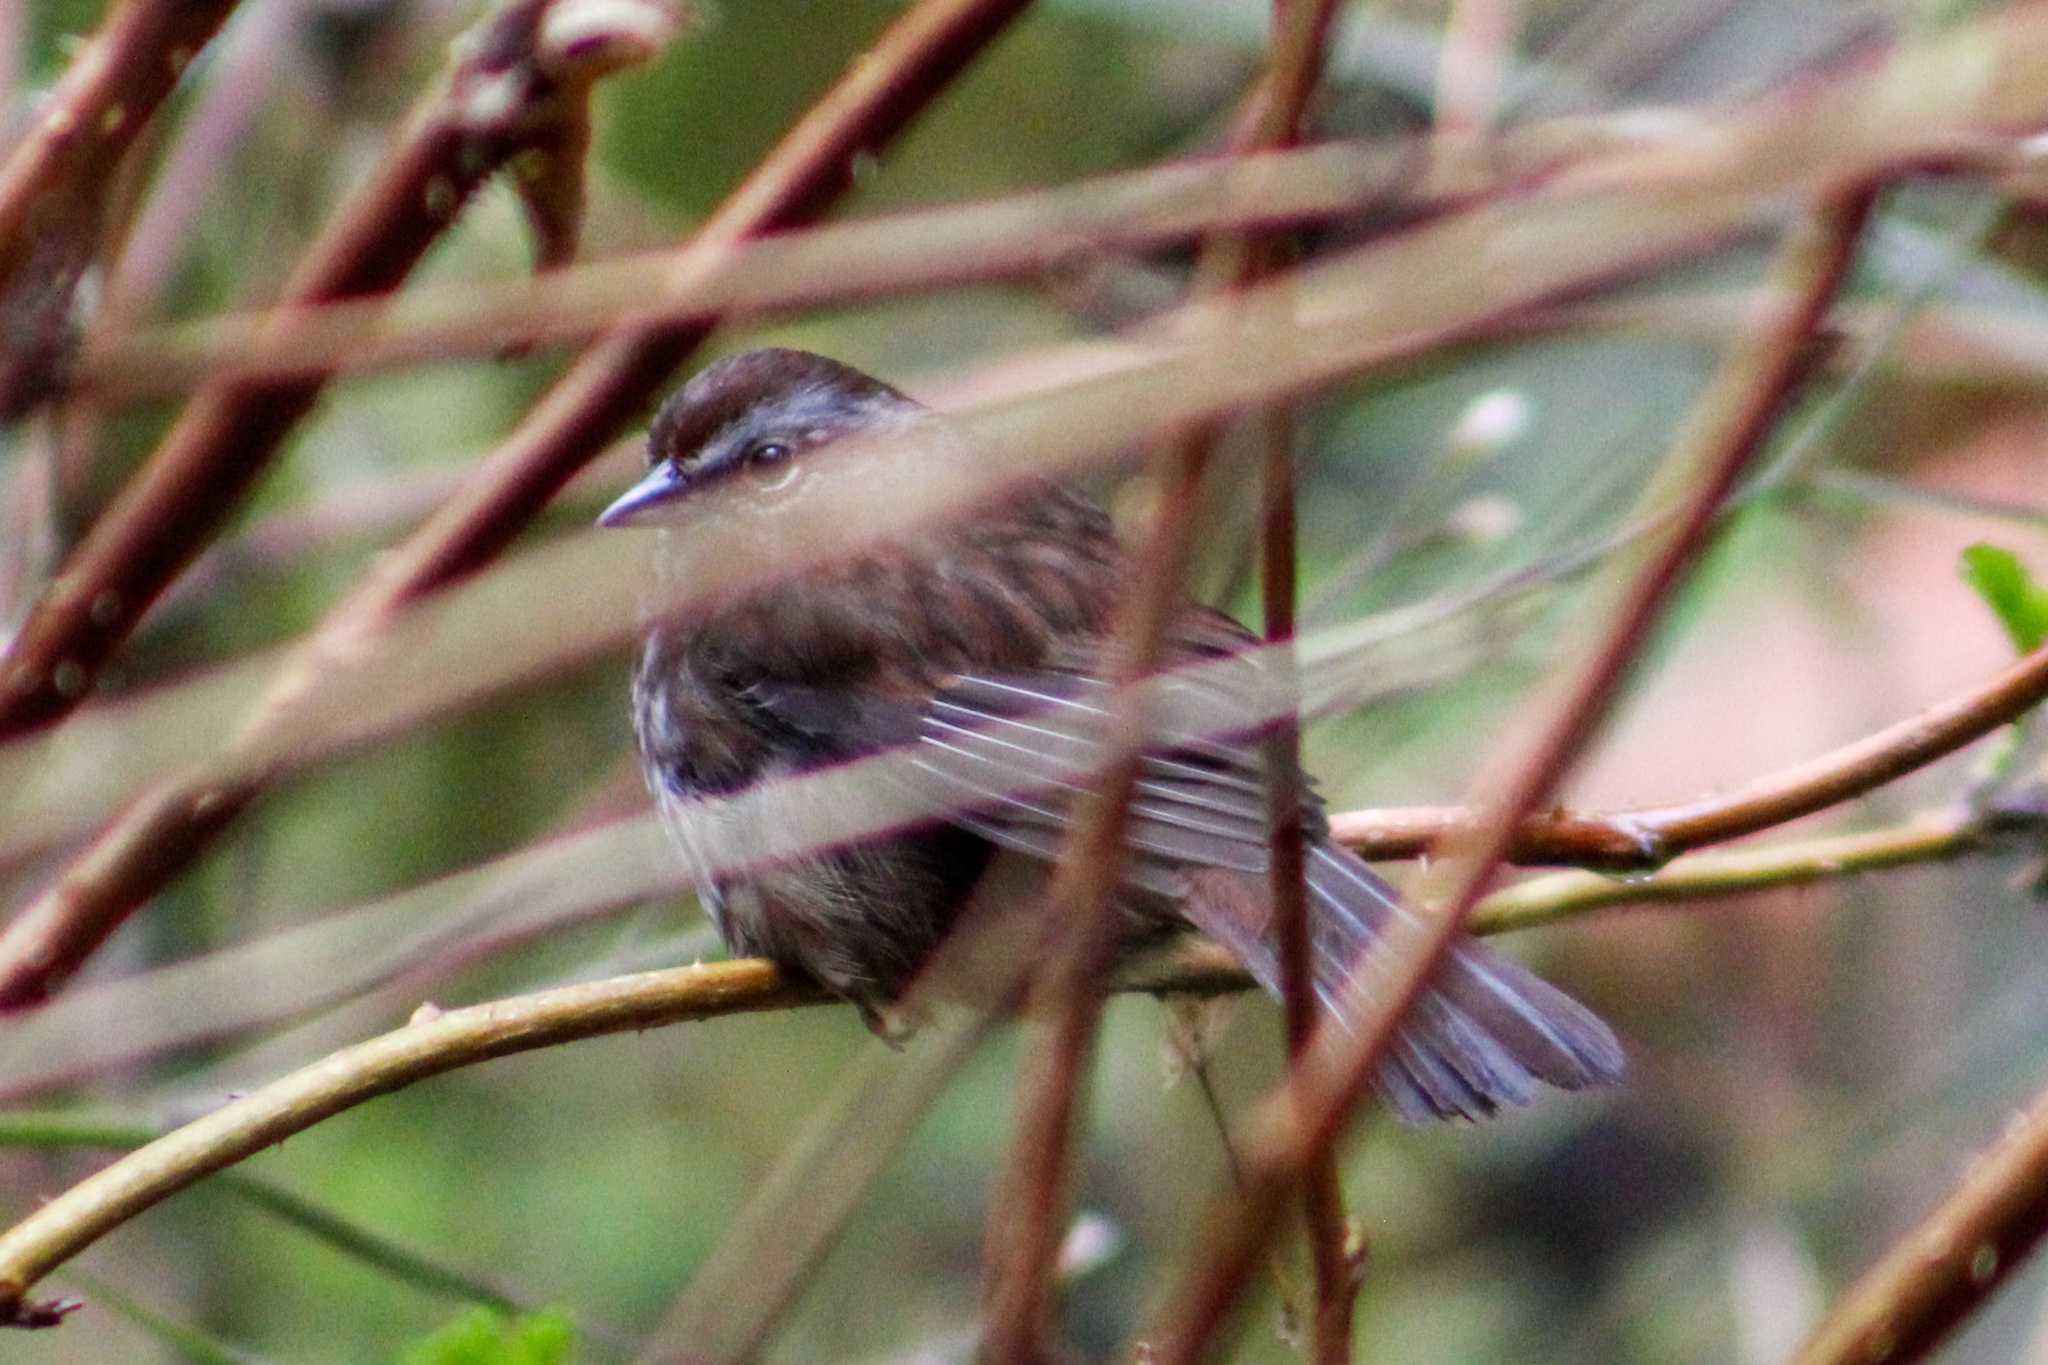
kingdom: Animalia
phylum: Chordata
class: Aves
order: Passeriformes
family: Passerellidae
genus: Melospiza
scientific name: Melospiza melodia
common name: Song sparrow
